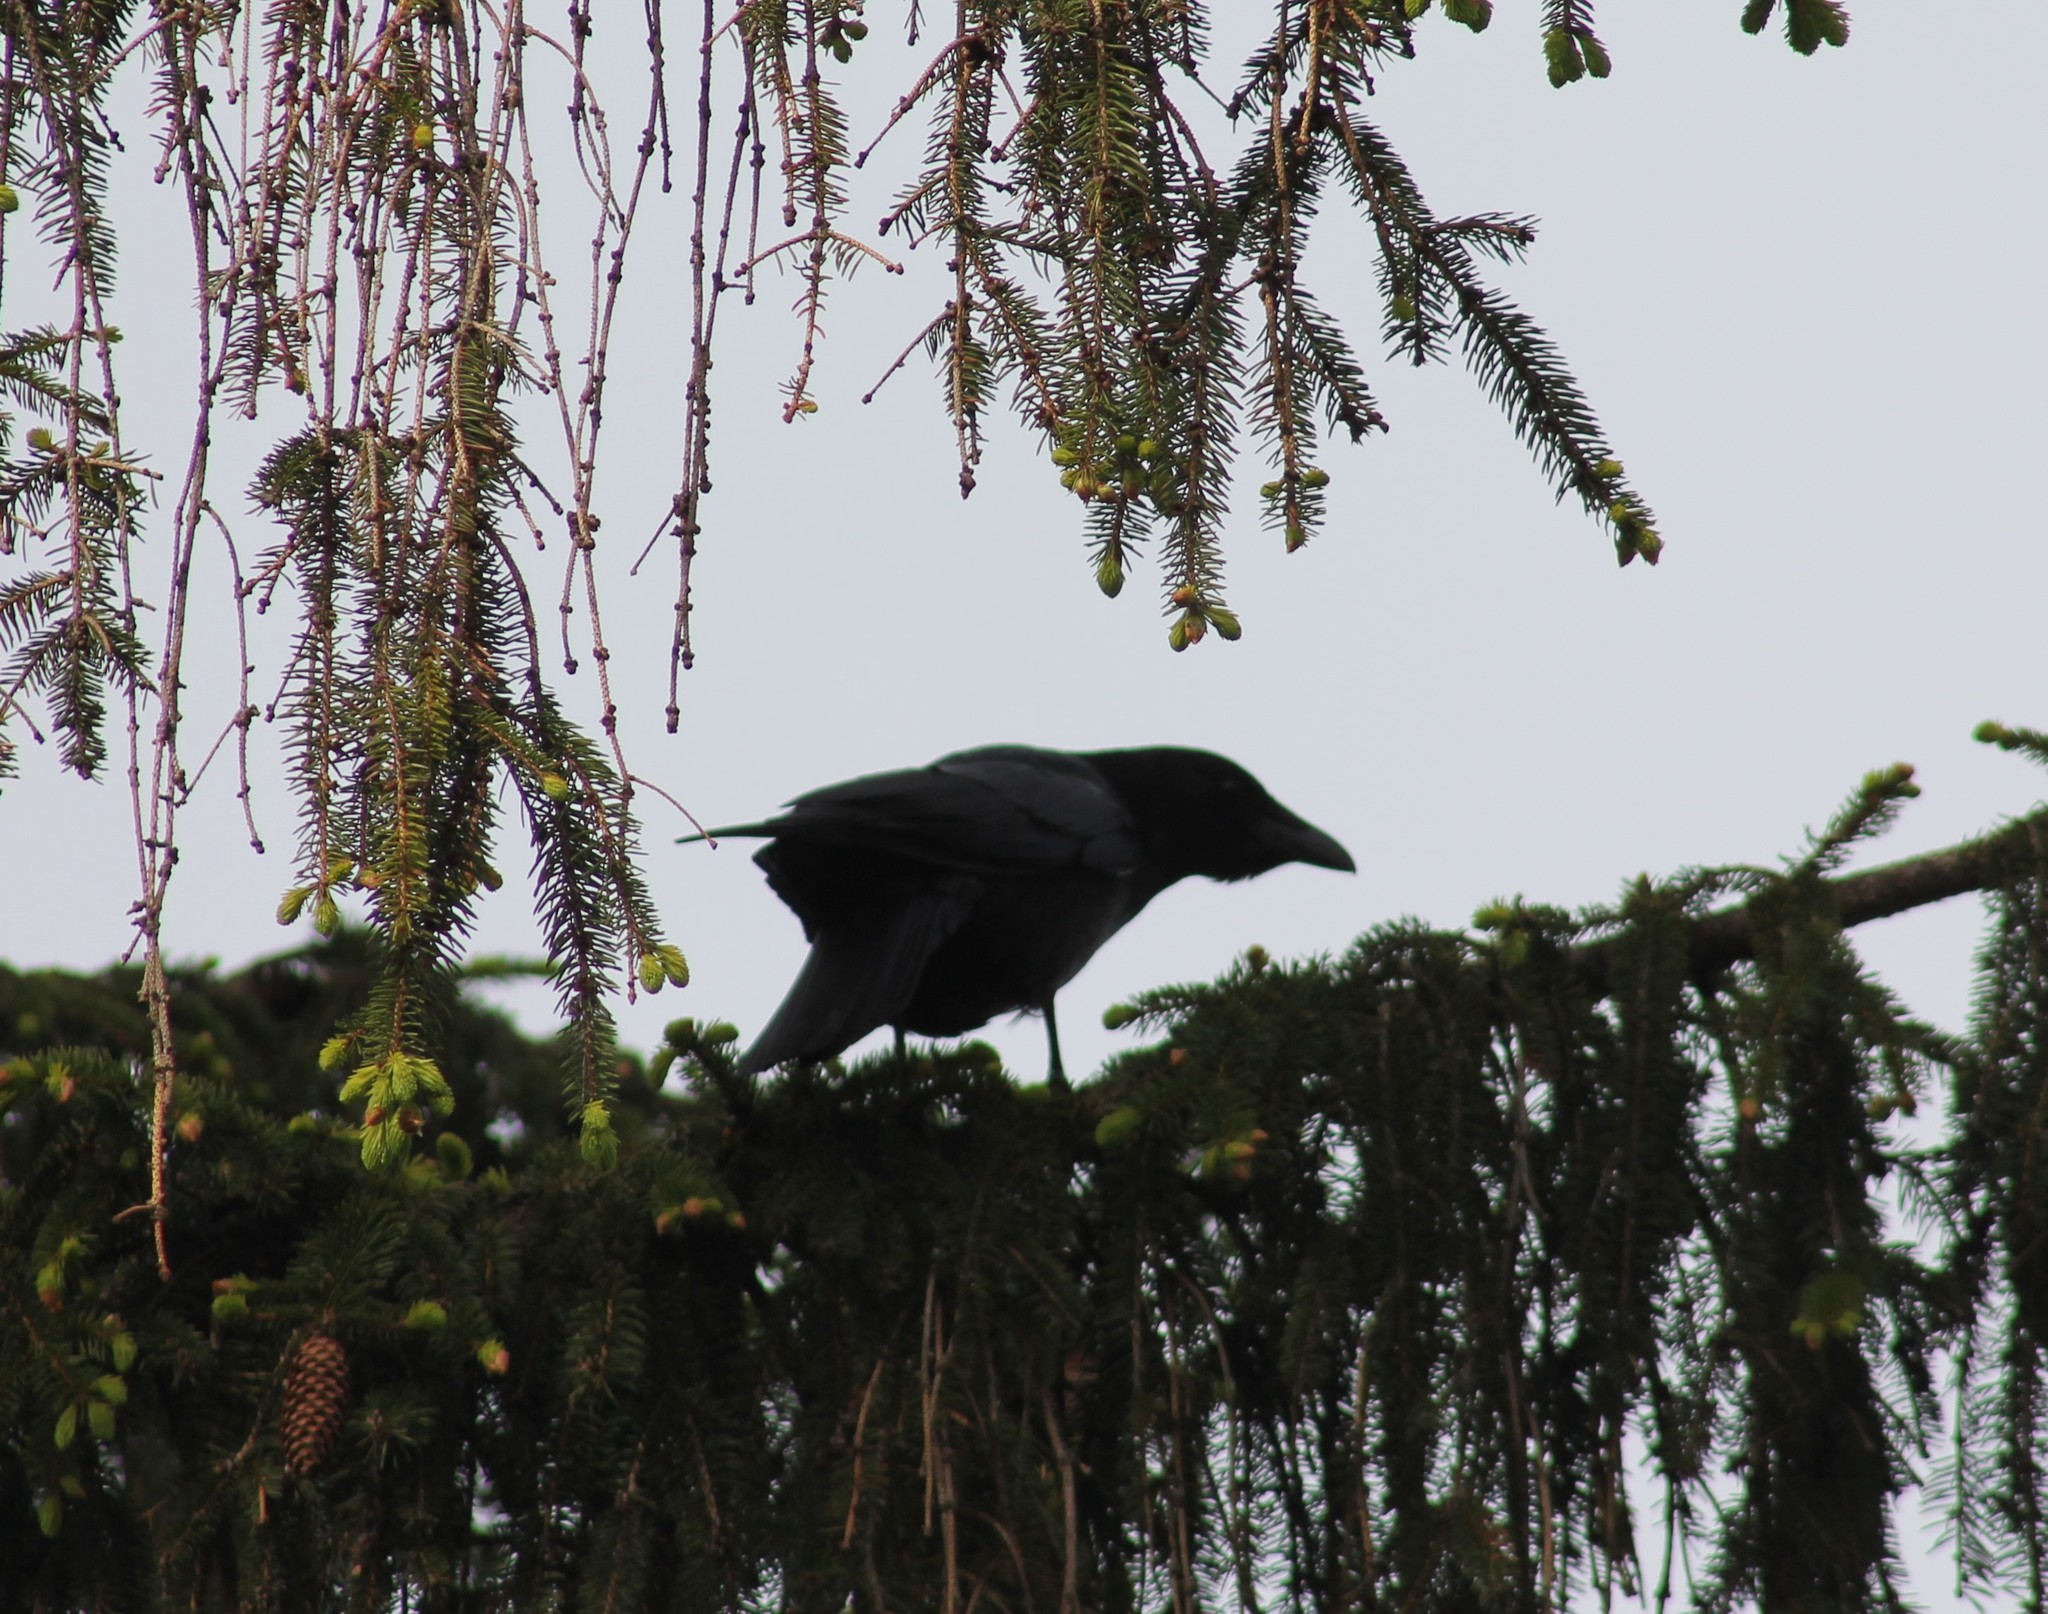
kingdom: Animalia
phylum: Chordata
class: Aves
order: Passeriformes
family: Corvidae
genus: Corvus
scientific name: Corvus corone
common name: Carrion crow
